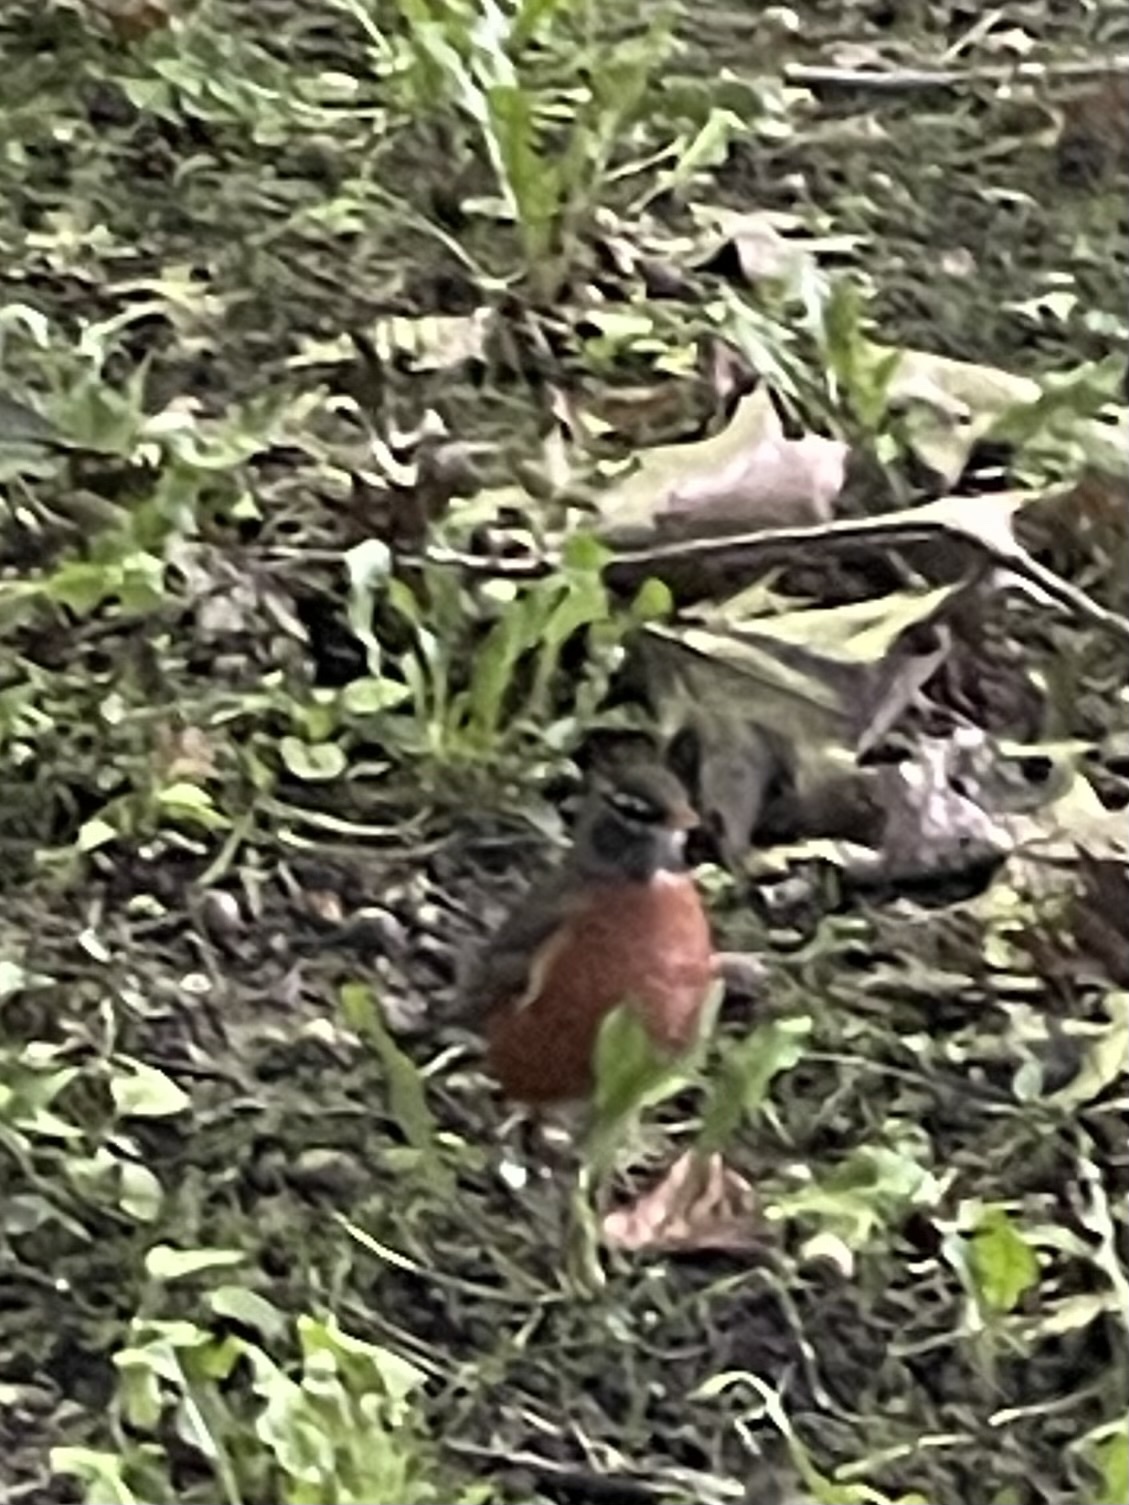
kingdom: Animalia
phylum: Chordata
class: Aves
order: Passeriformes
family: Turdidae
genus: Turdus
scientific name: Turdus migratorius
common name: American robin
